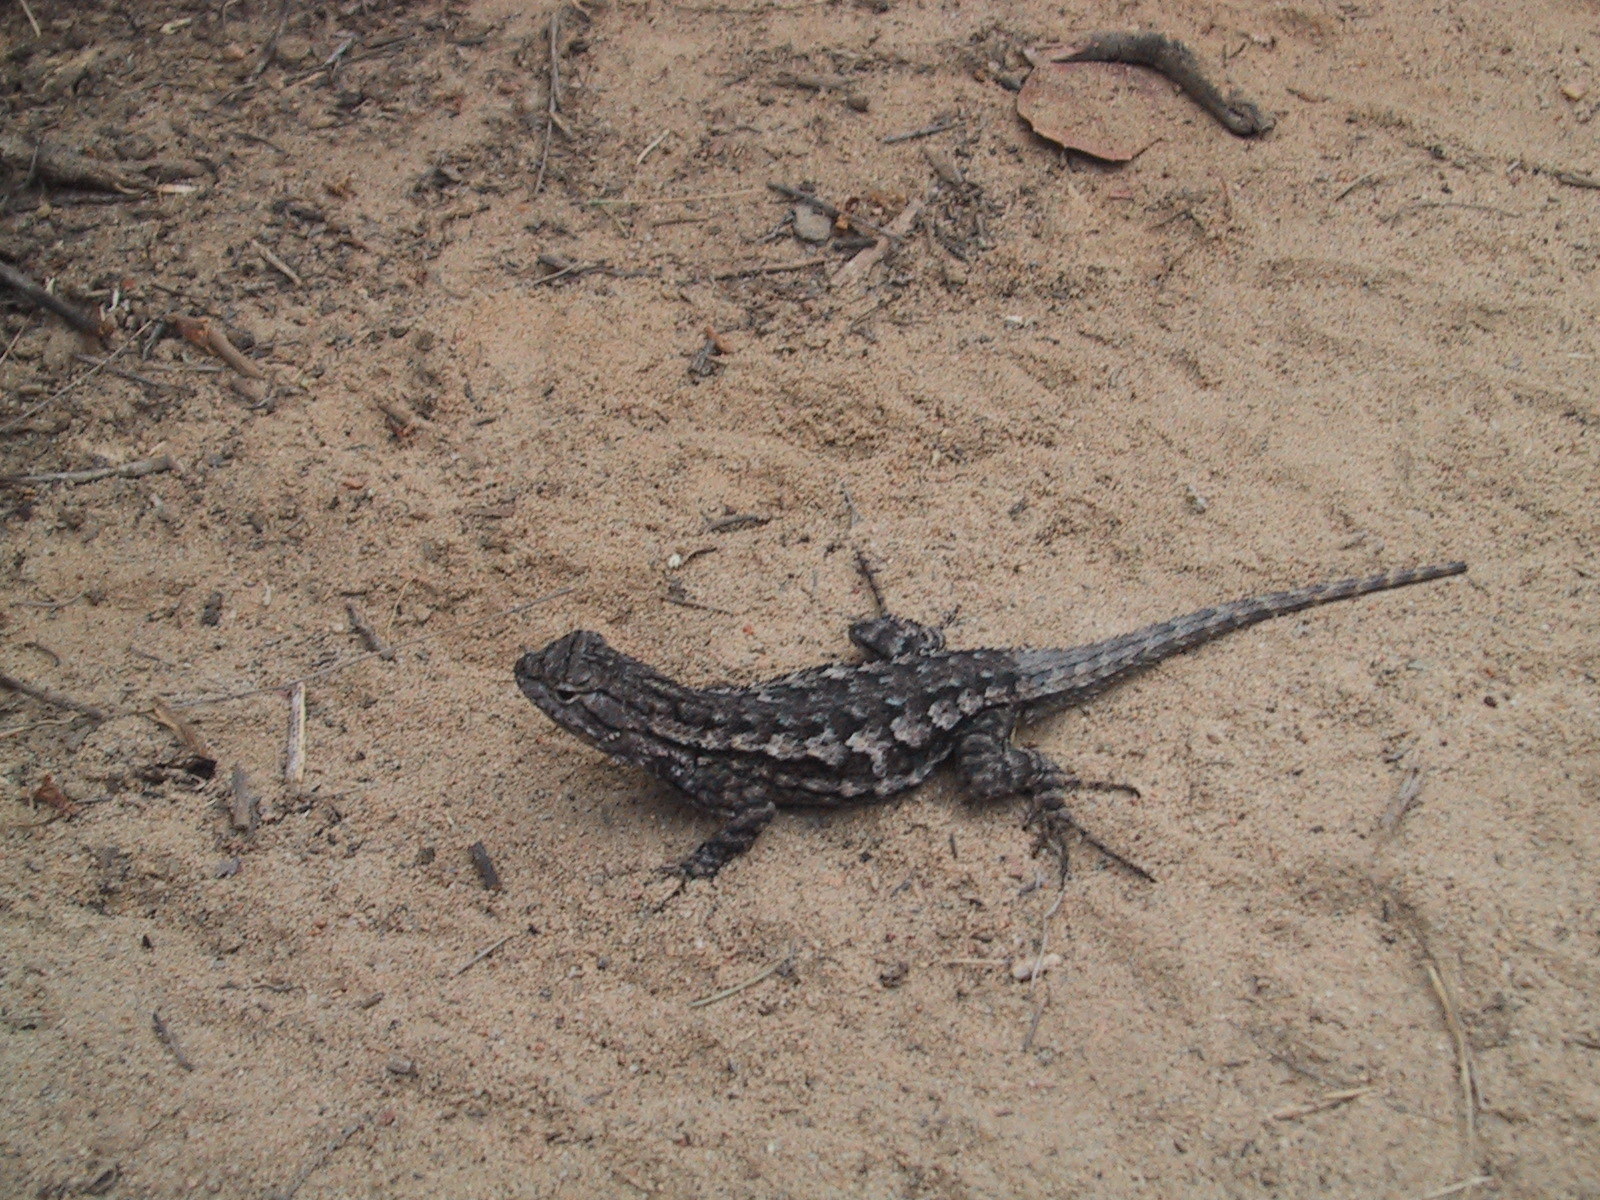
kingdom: Animalia
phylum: Chordata
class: Squamata
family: Phrynosomatidae
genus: Sceloporus
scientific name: Sceloporus occidentalis
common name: Western fence lizard
